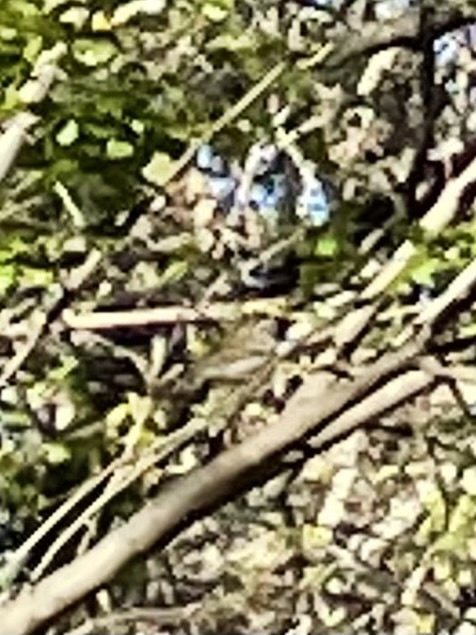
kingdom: Animalia
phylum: Chordata
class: Aves
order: Passeriformes
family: Regulidae
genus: Regulus
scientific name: Regulus calendula
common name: Ruby-crowned kinglet
